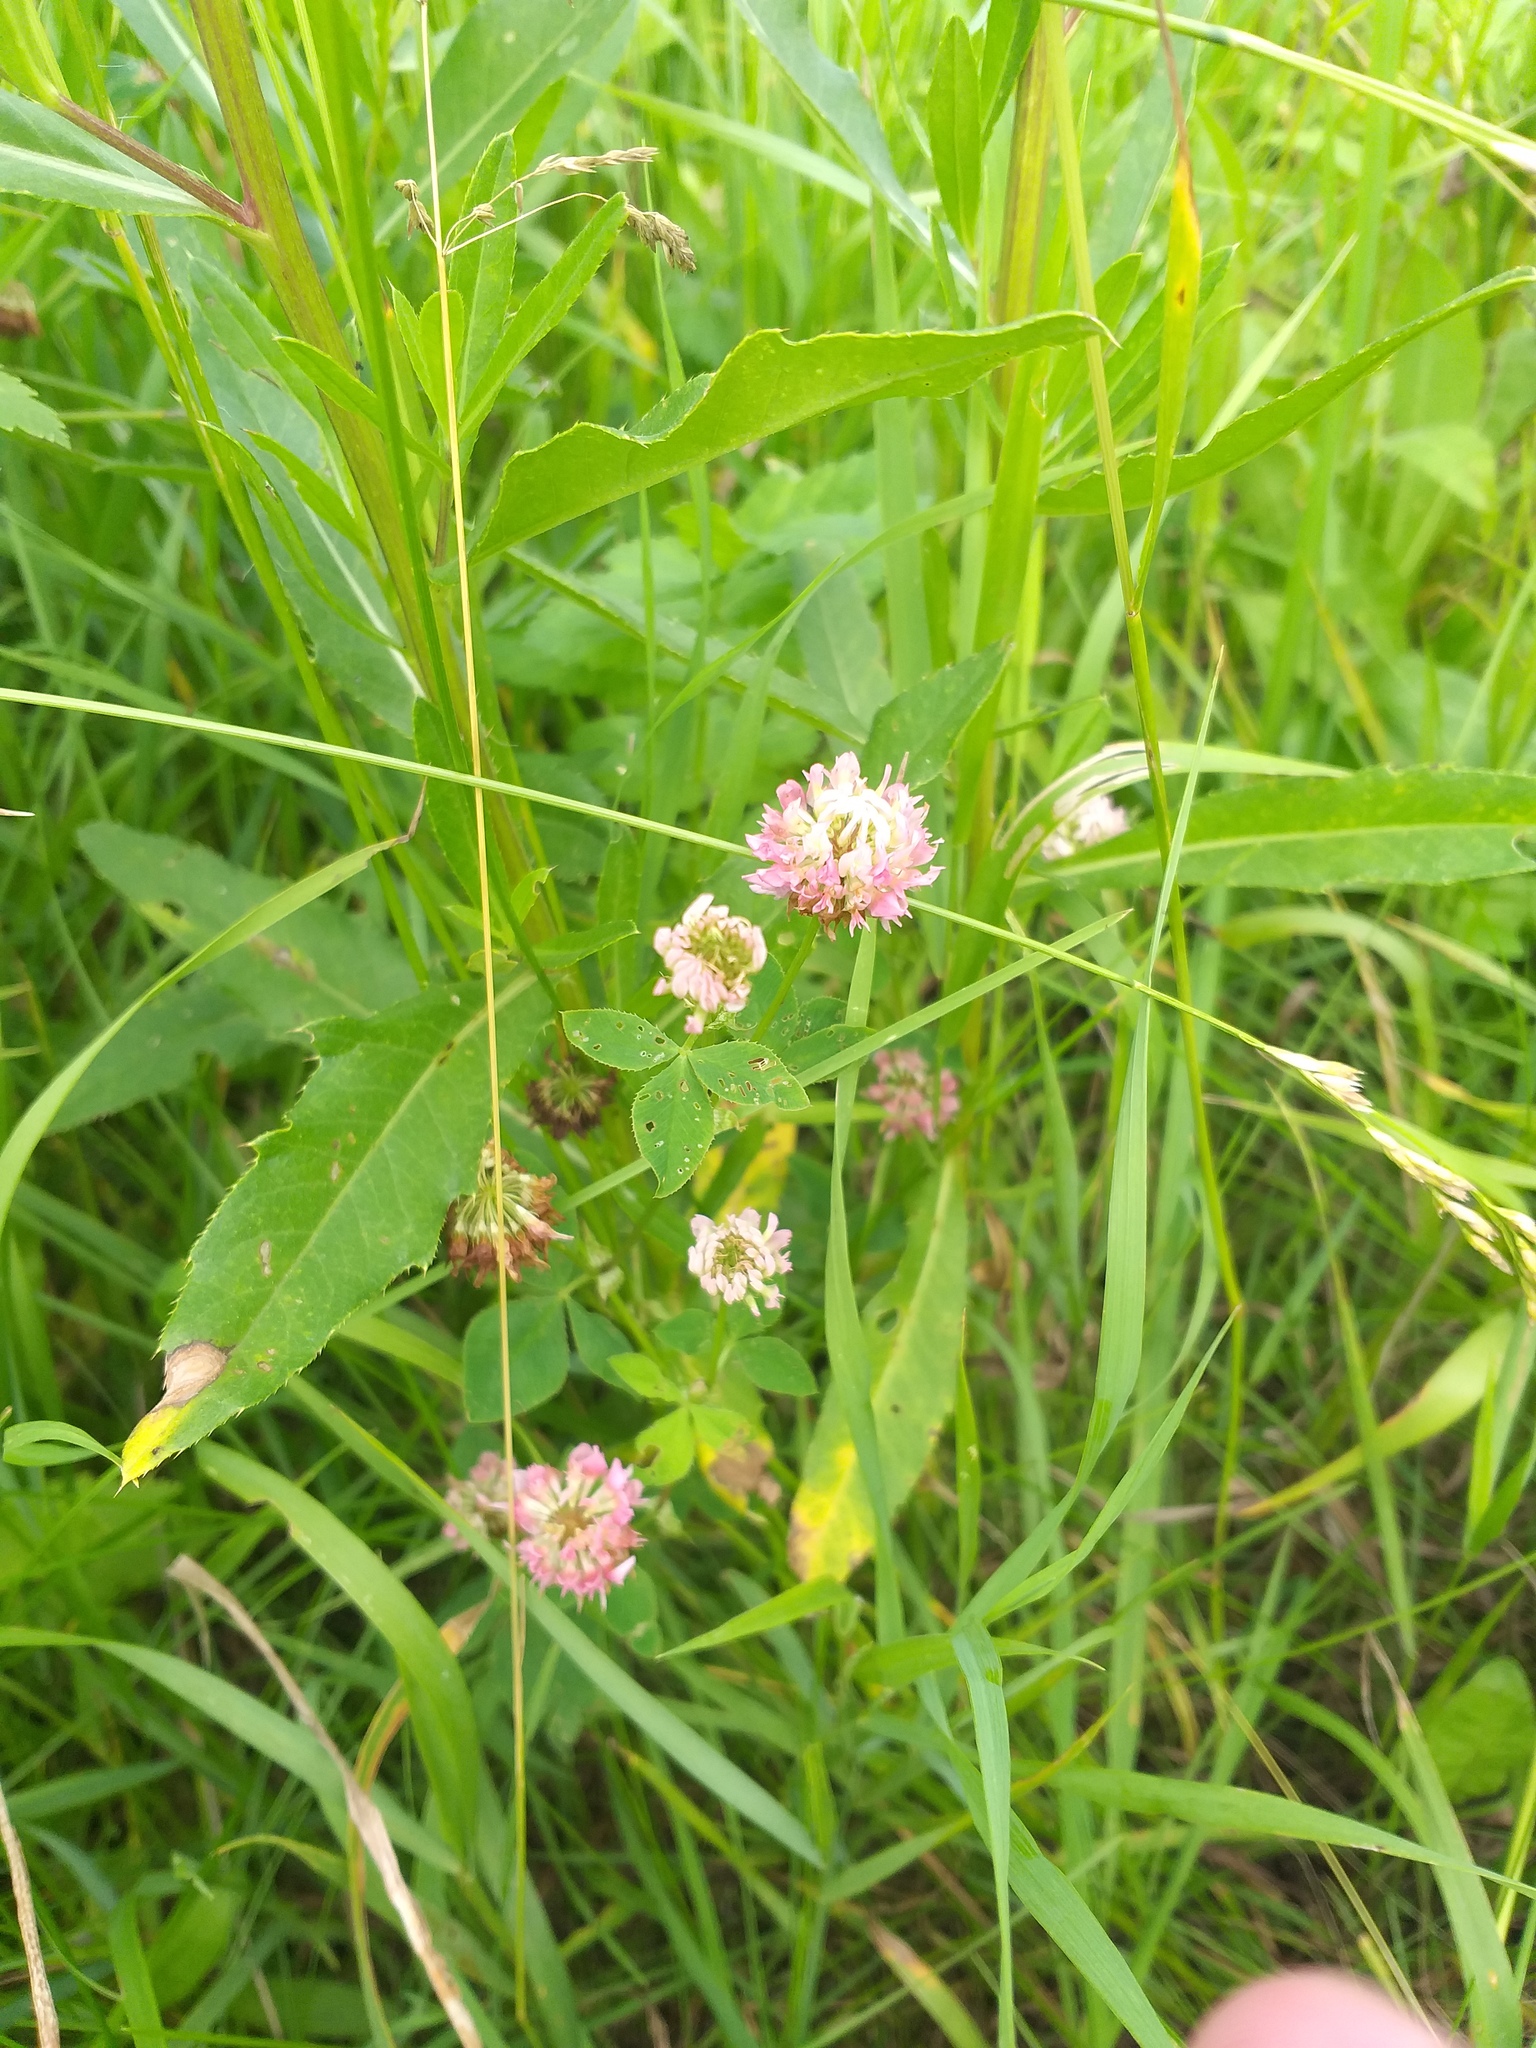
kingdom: Plantae
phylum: Tracheophyta
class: Magnoliopsida
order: Fabales
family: Fabaceae
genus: Trifolium
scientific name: Trifolium hybridum
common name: Alsike clover
